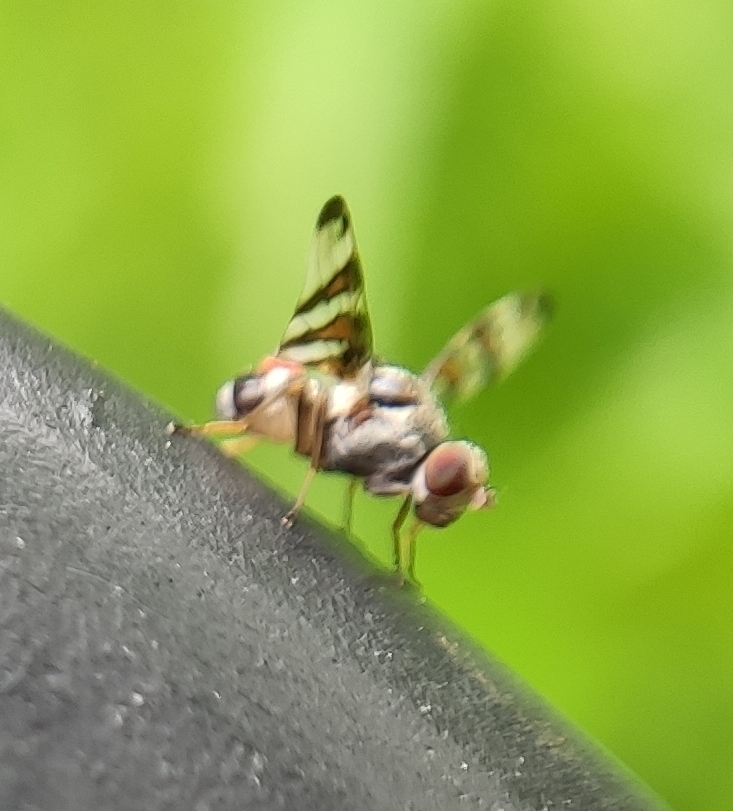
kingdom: Animalia
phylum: Arthropoda
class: Insecta
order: Diptera
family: Ulidiidae
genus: Myennis
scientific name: Myennis octopunctata
